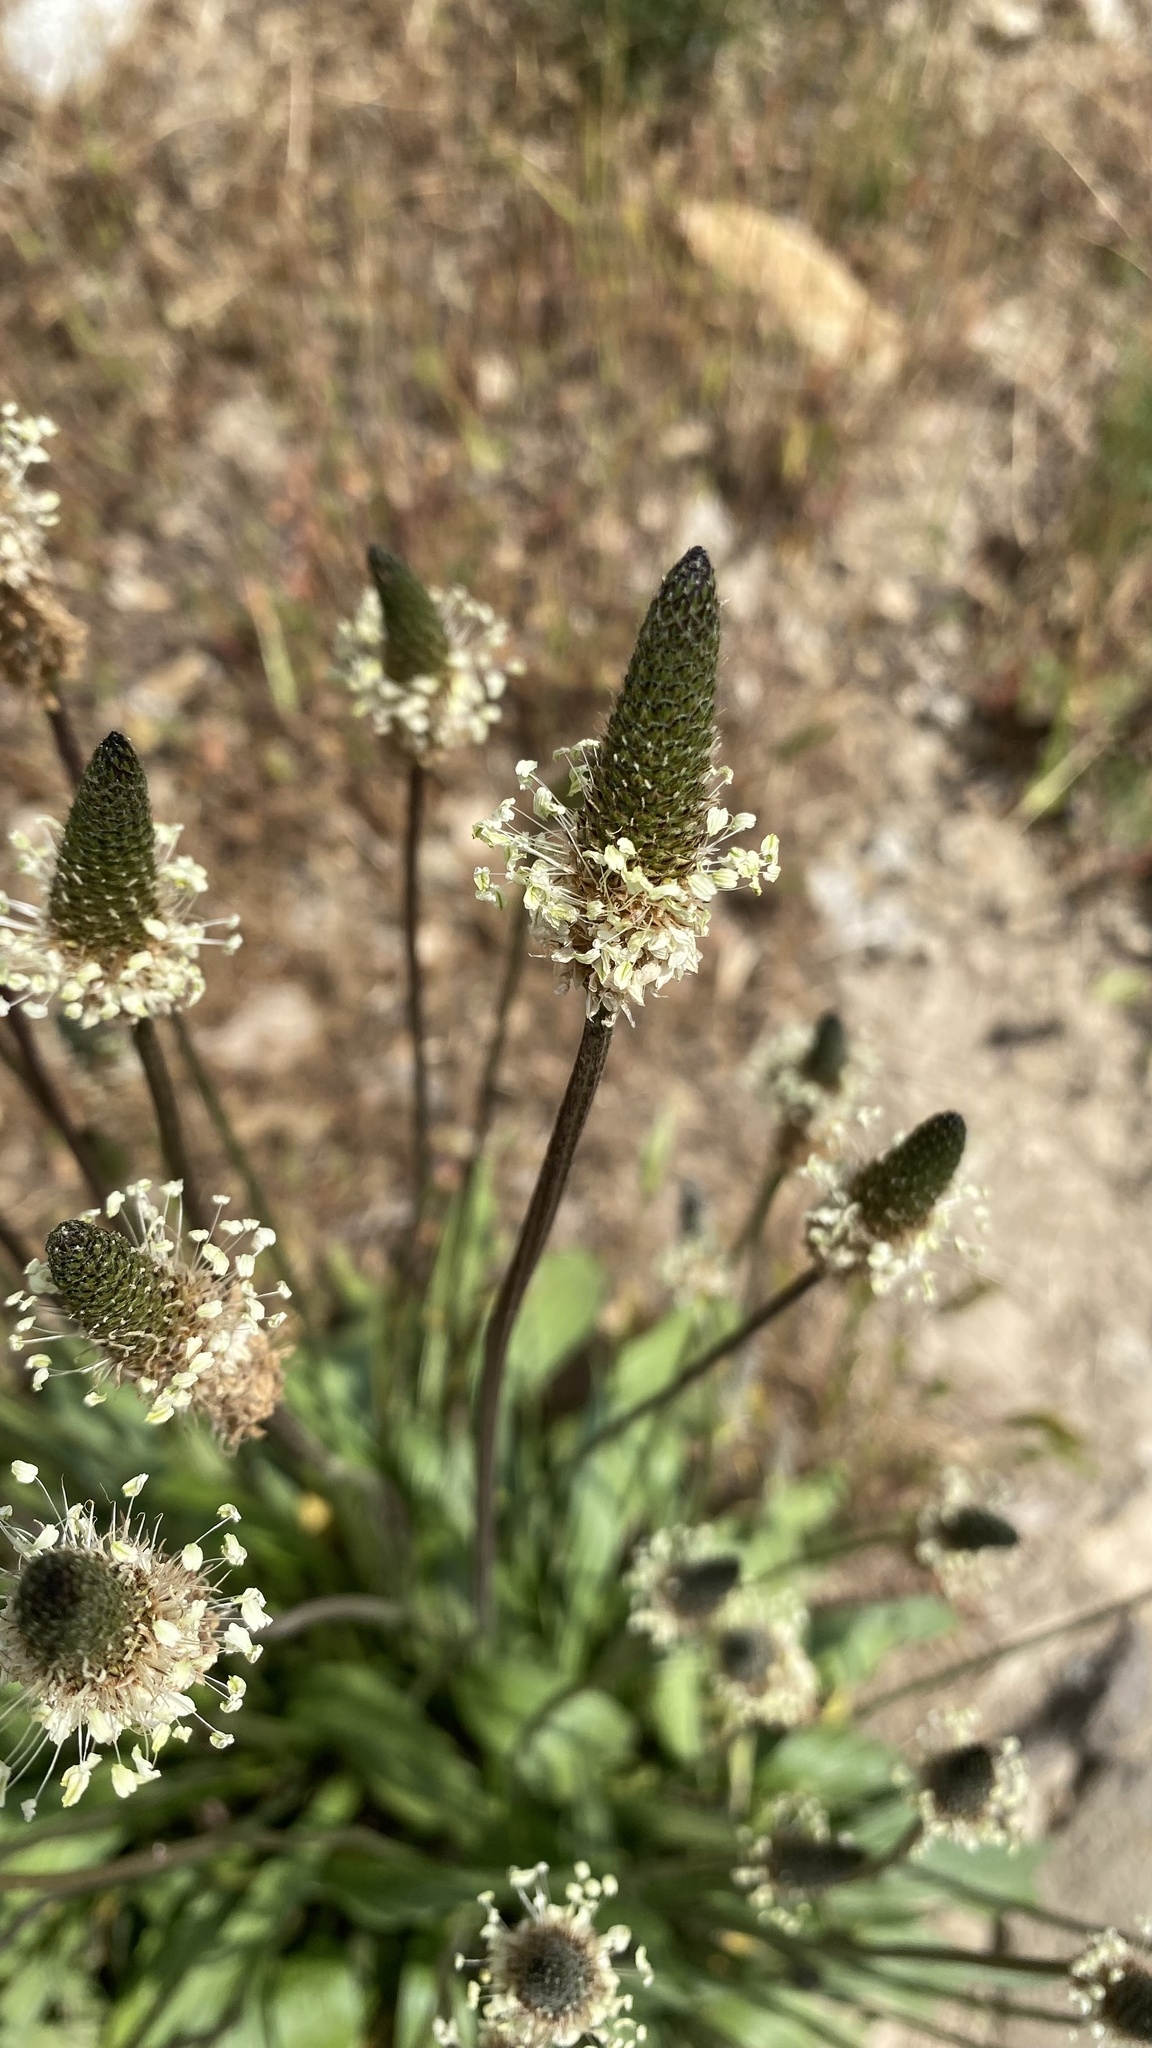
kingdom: Plantae
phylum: Tracheophyta
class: Magnoliopsida
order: Lamiales
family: Plantaginaceae
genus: Plantago
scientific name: Plantago lanceolata
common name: Ribwort plantain
